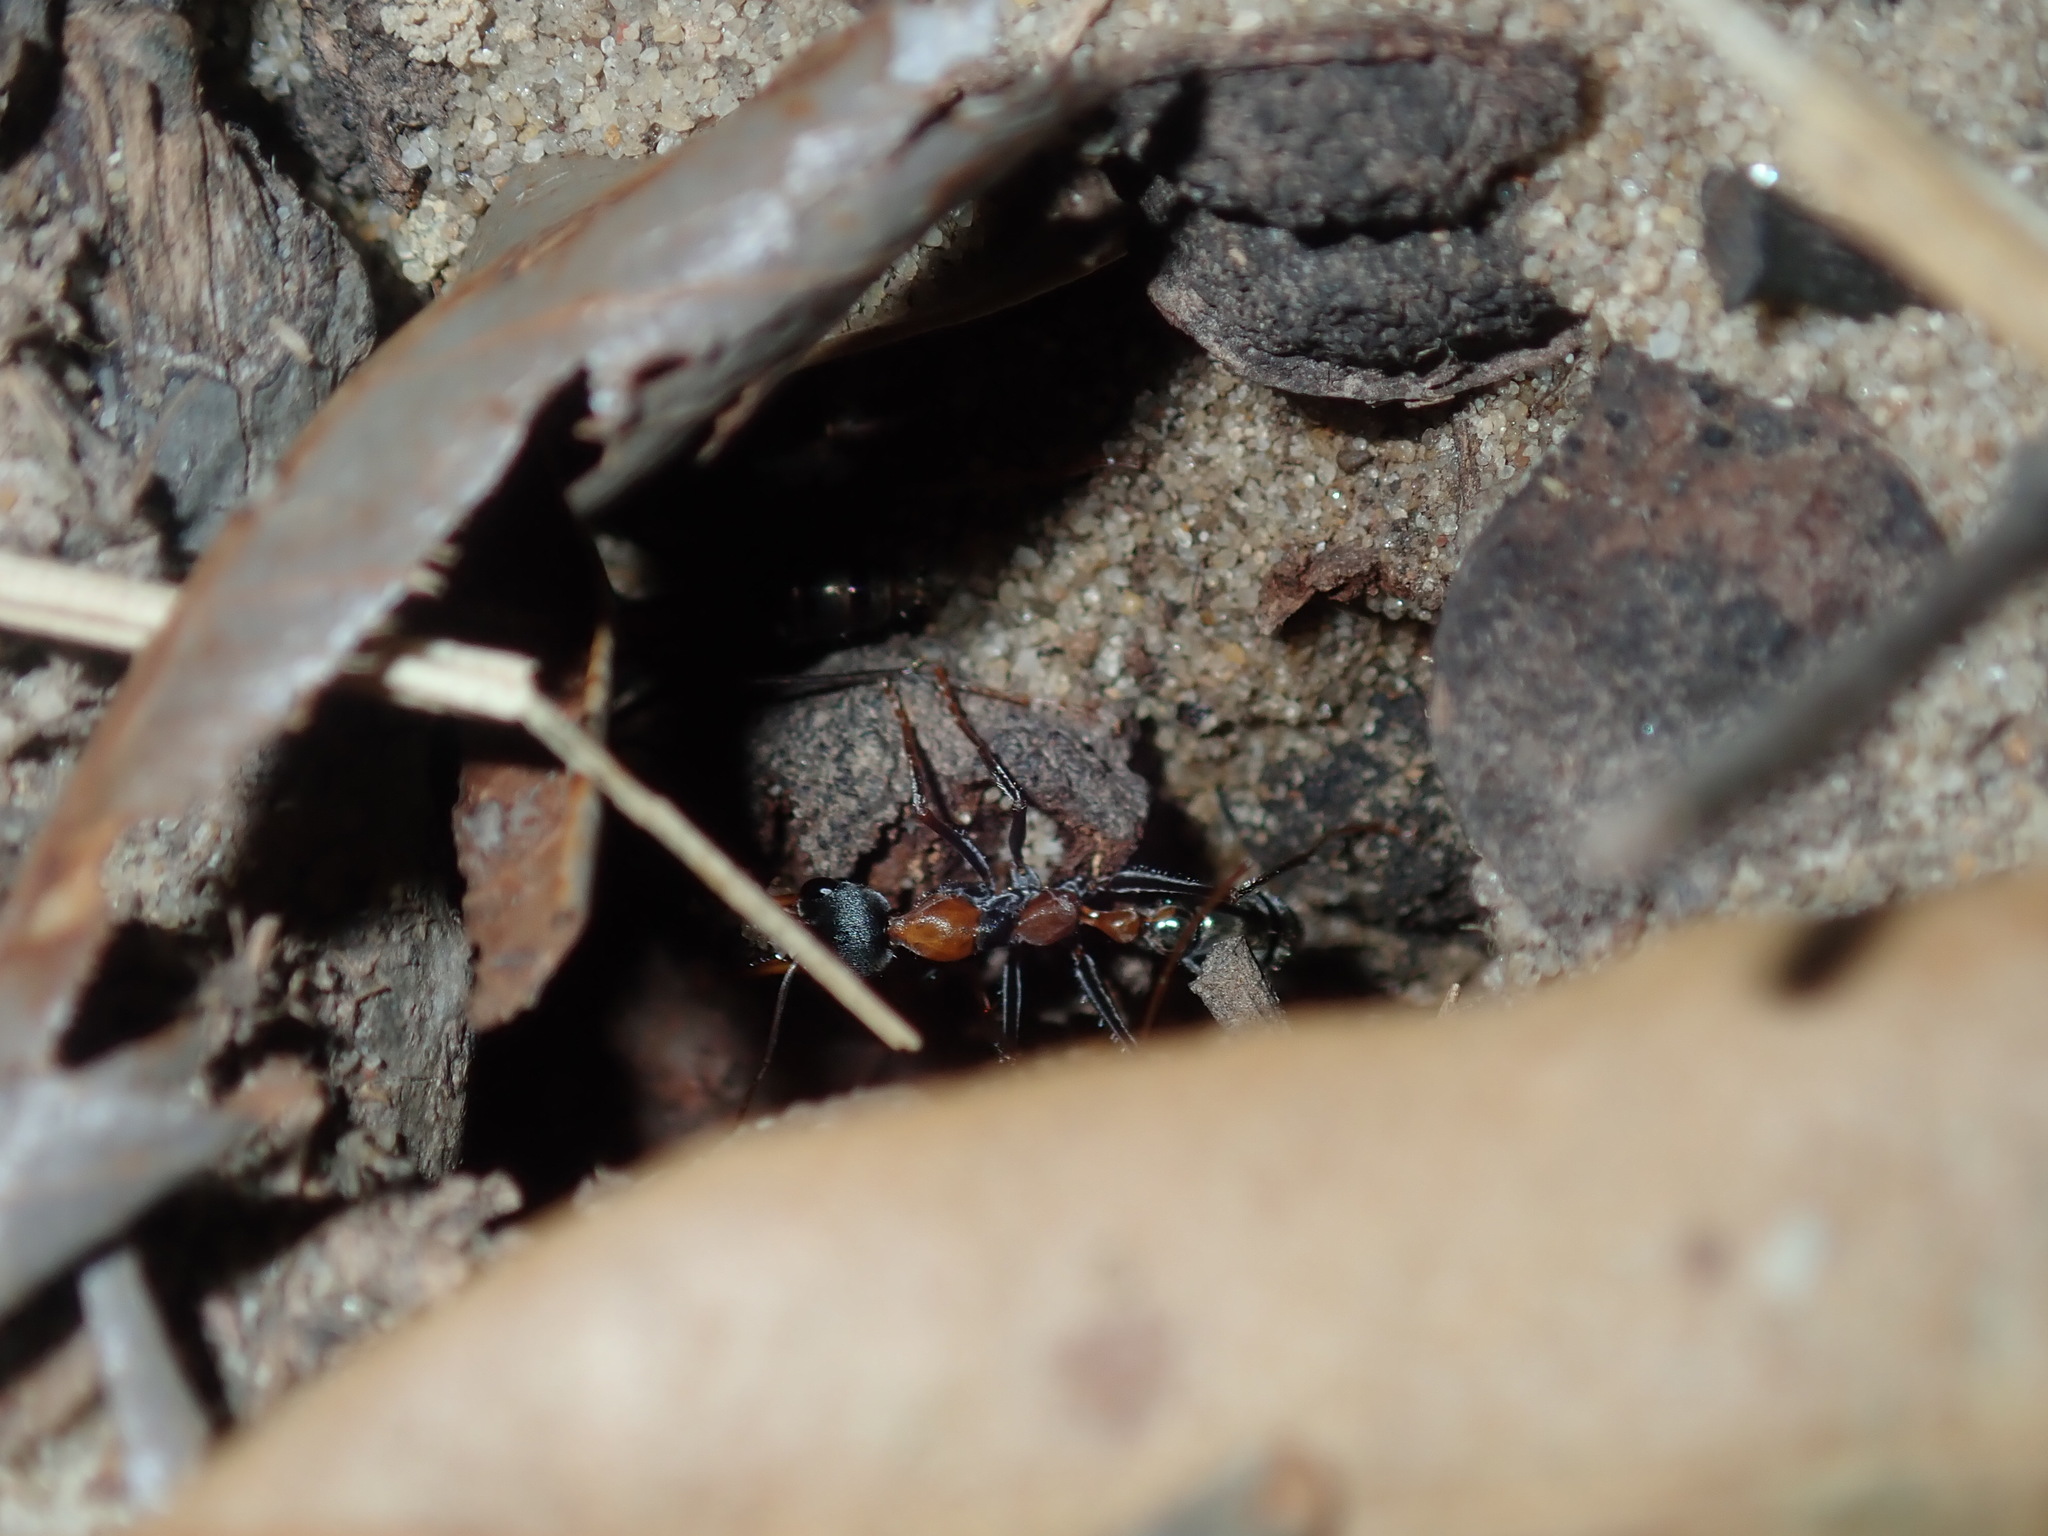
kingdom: Animalia
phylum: Arthropoda
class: Insecta
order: Hymenoptera
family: Formicidae
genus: Myrmecia
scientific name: Myrmecia nigrocincta
